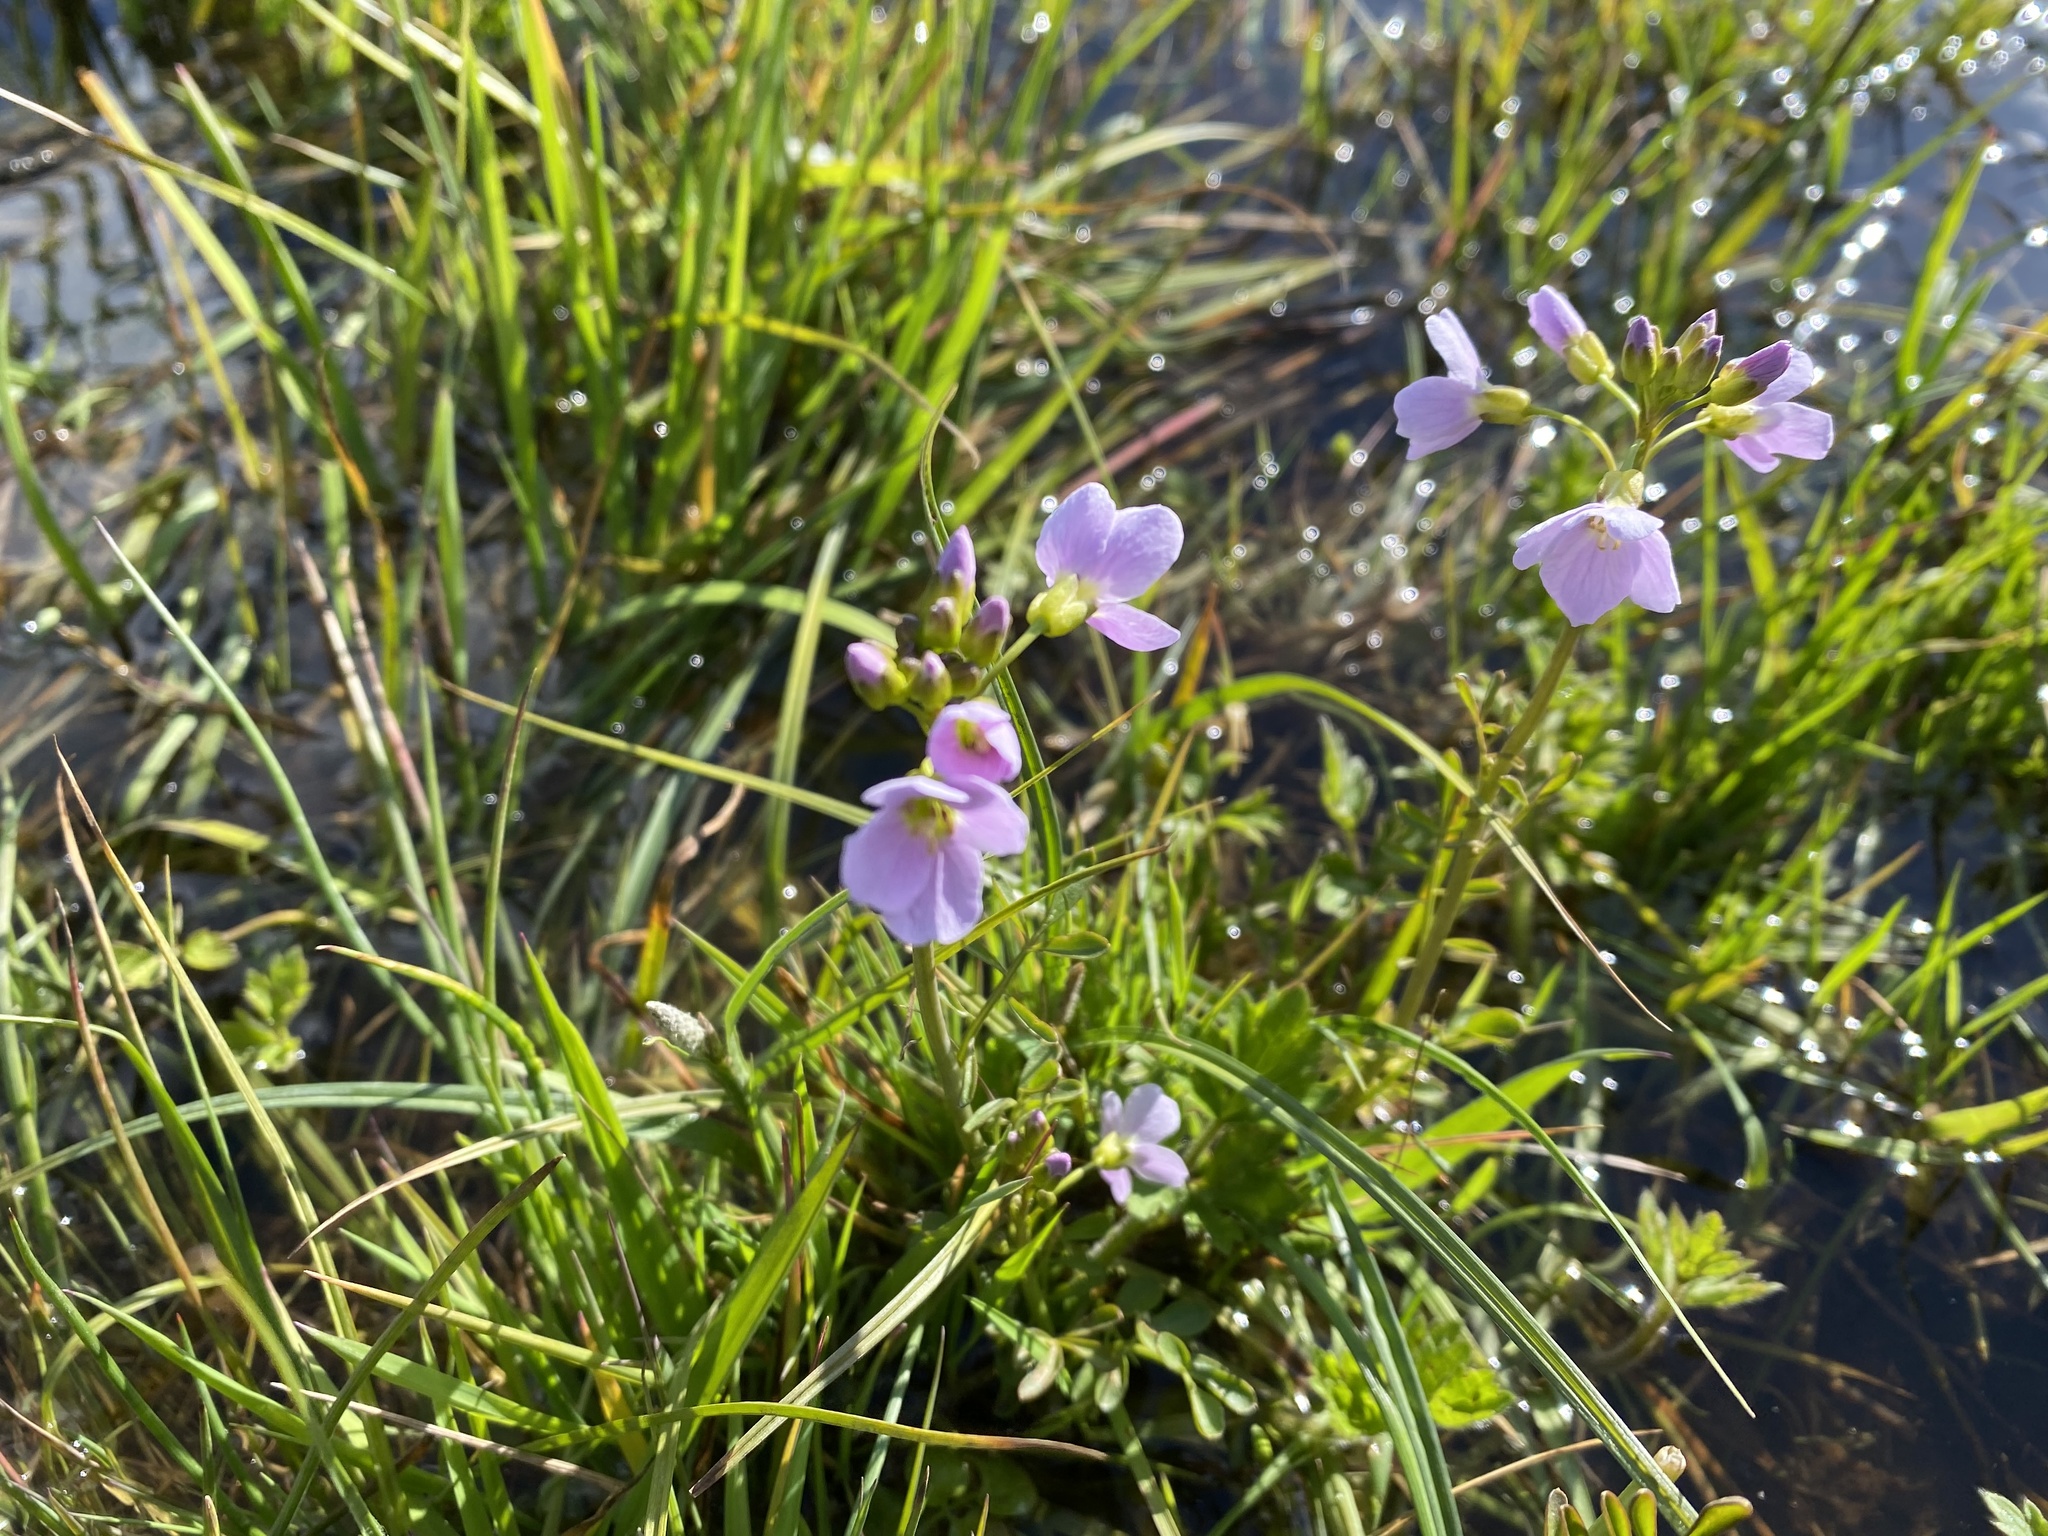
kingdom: Plantae
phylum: Tracheophyta
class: Magnoliopsida
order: Brassicales
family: Brassicaceae
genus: Cardamine
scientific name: Cardamine pratensis
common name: Cuckoo flower
